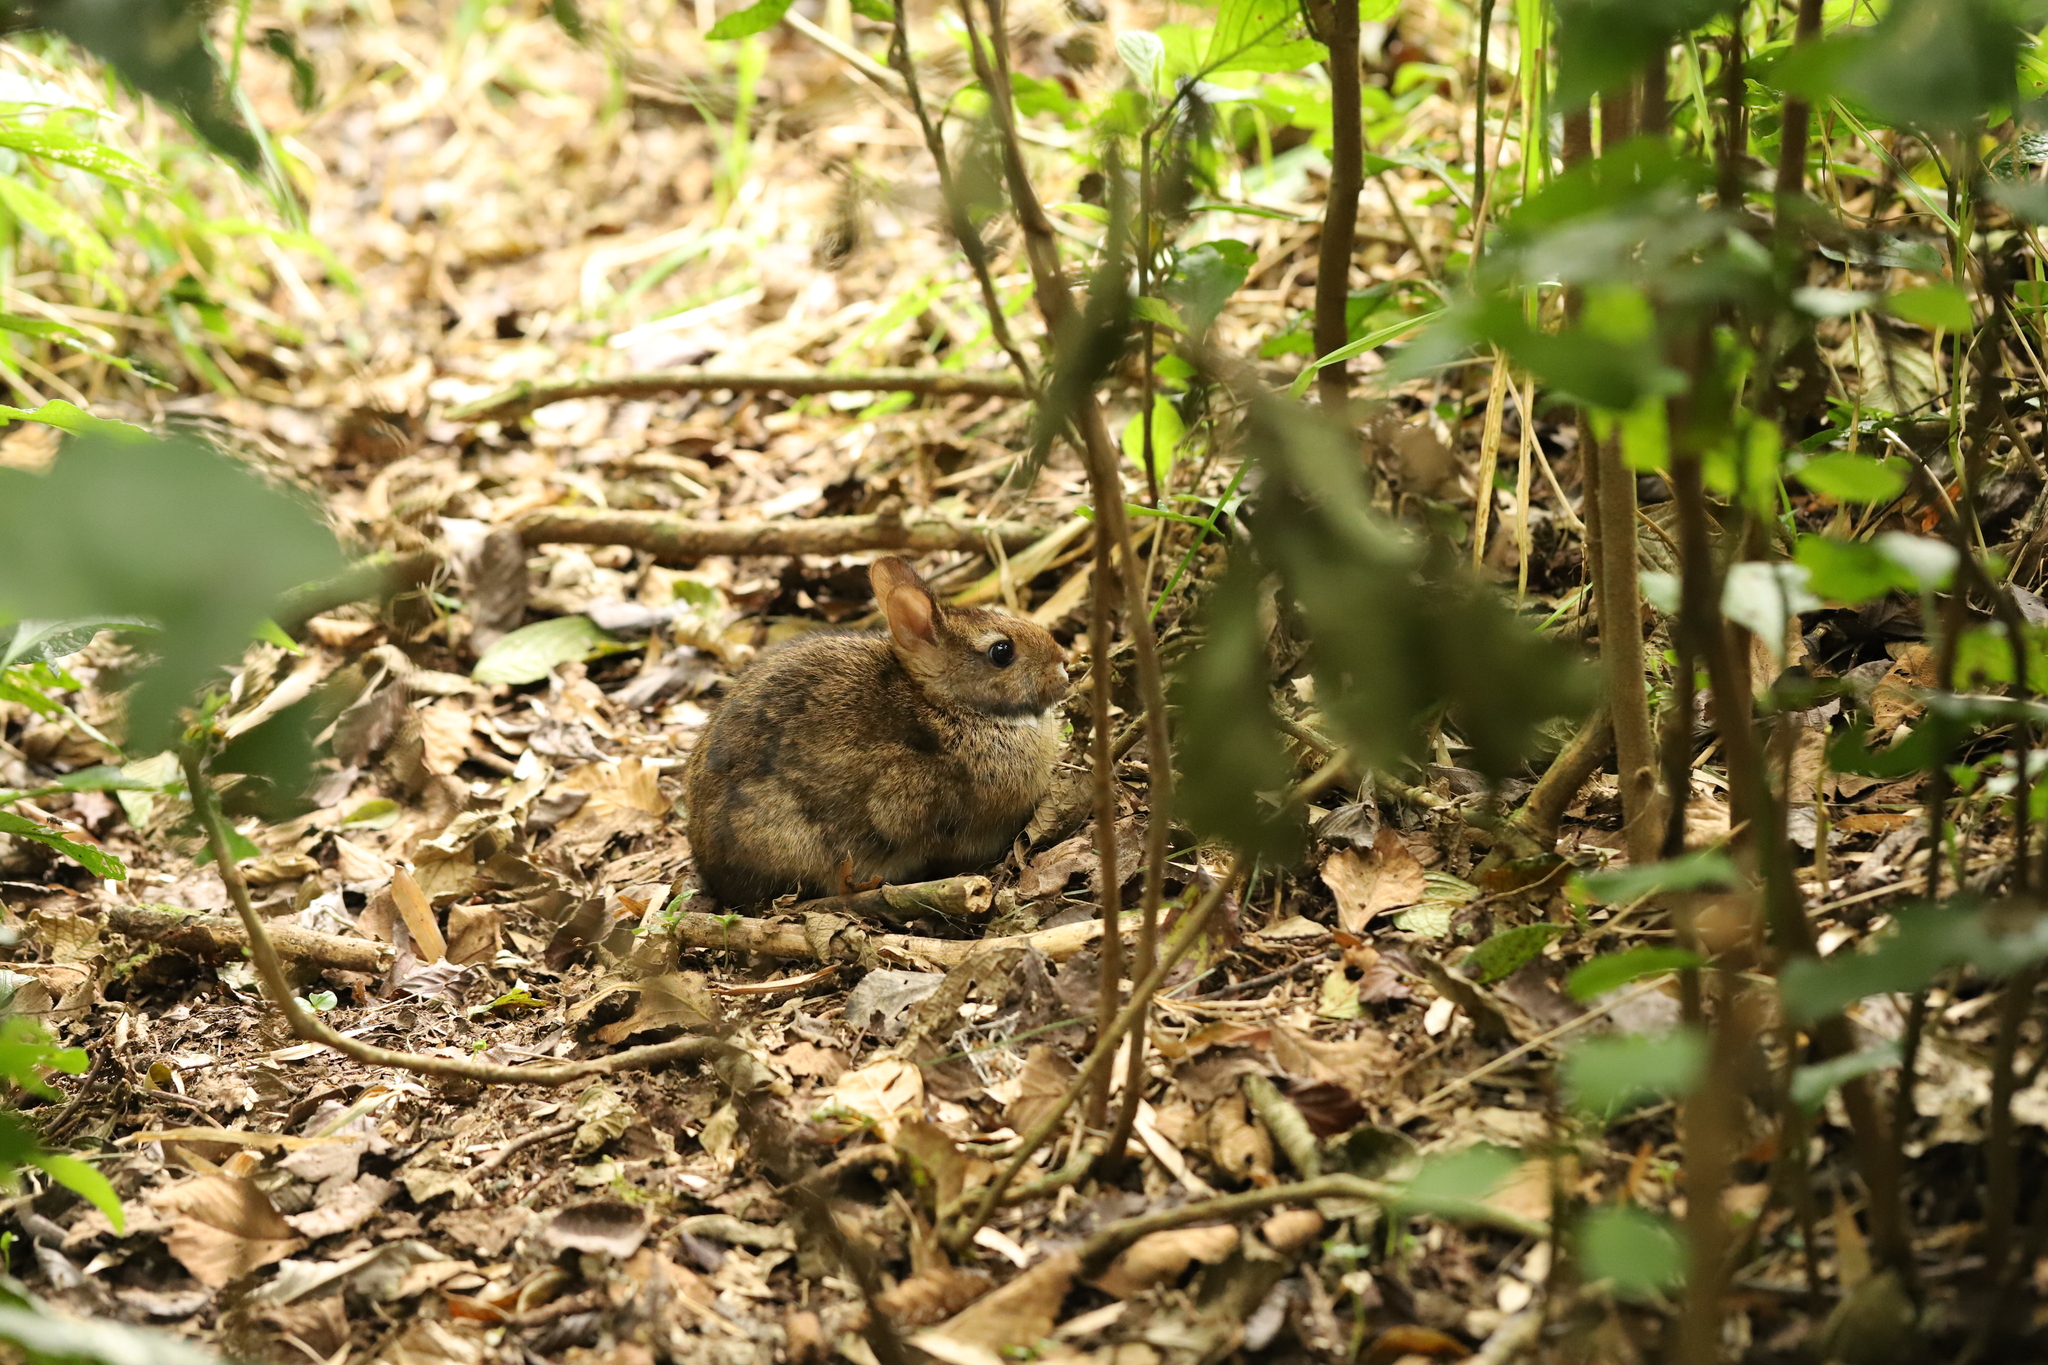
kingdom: Animalia
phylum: Chordata
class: Mammalia
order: Lagomorpha
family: Leporidae
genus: Sylvilagus
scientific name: Sylvilagus andinus
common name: Andean cottontail
